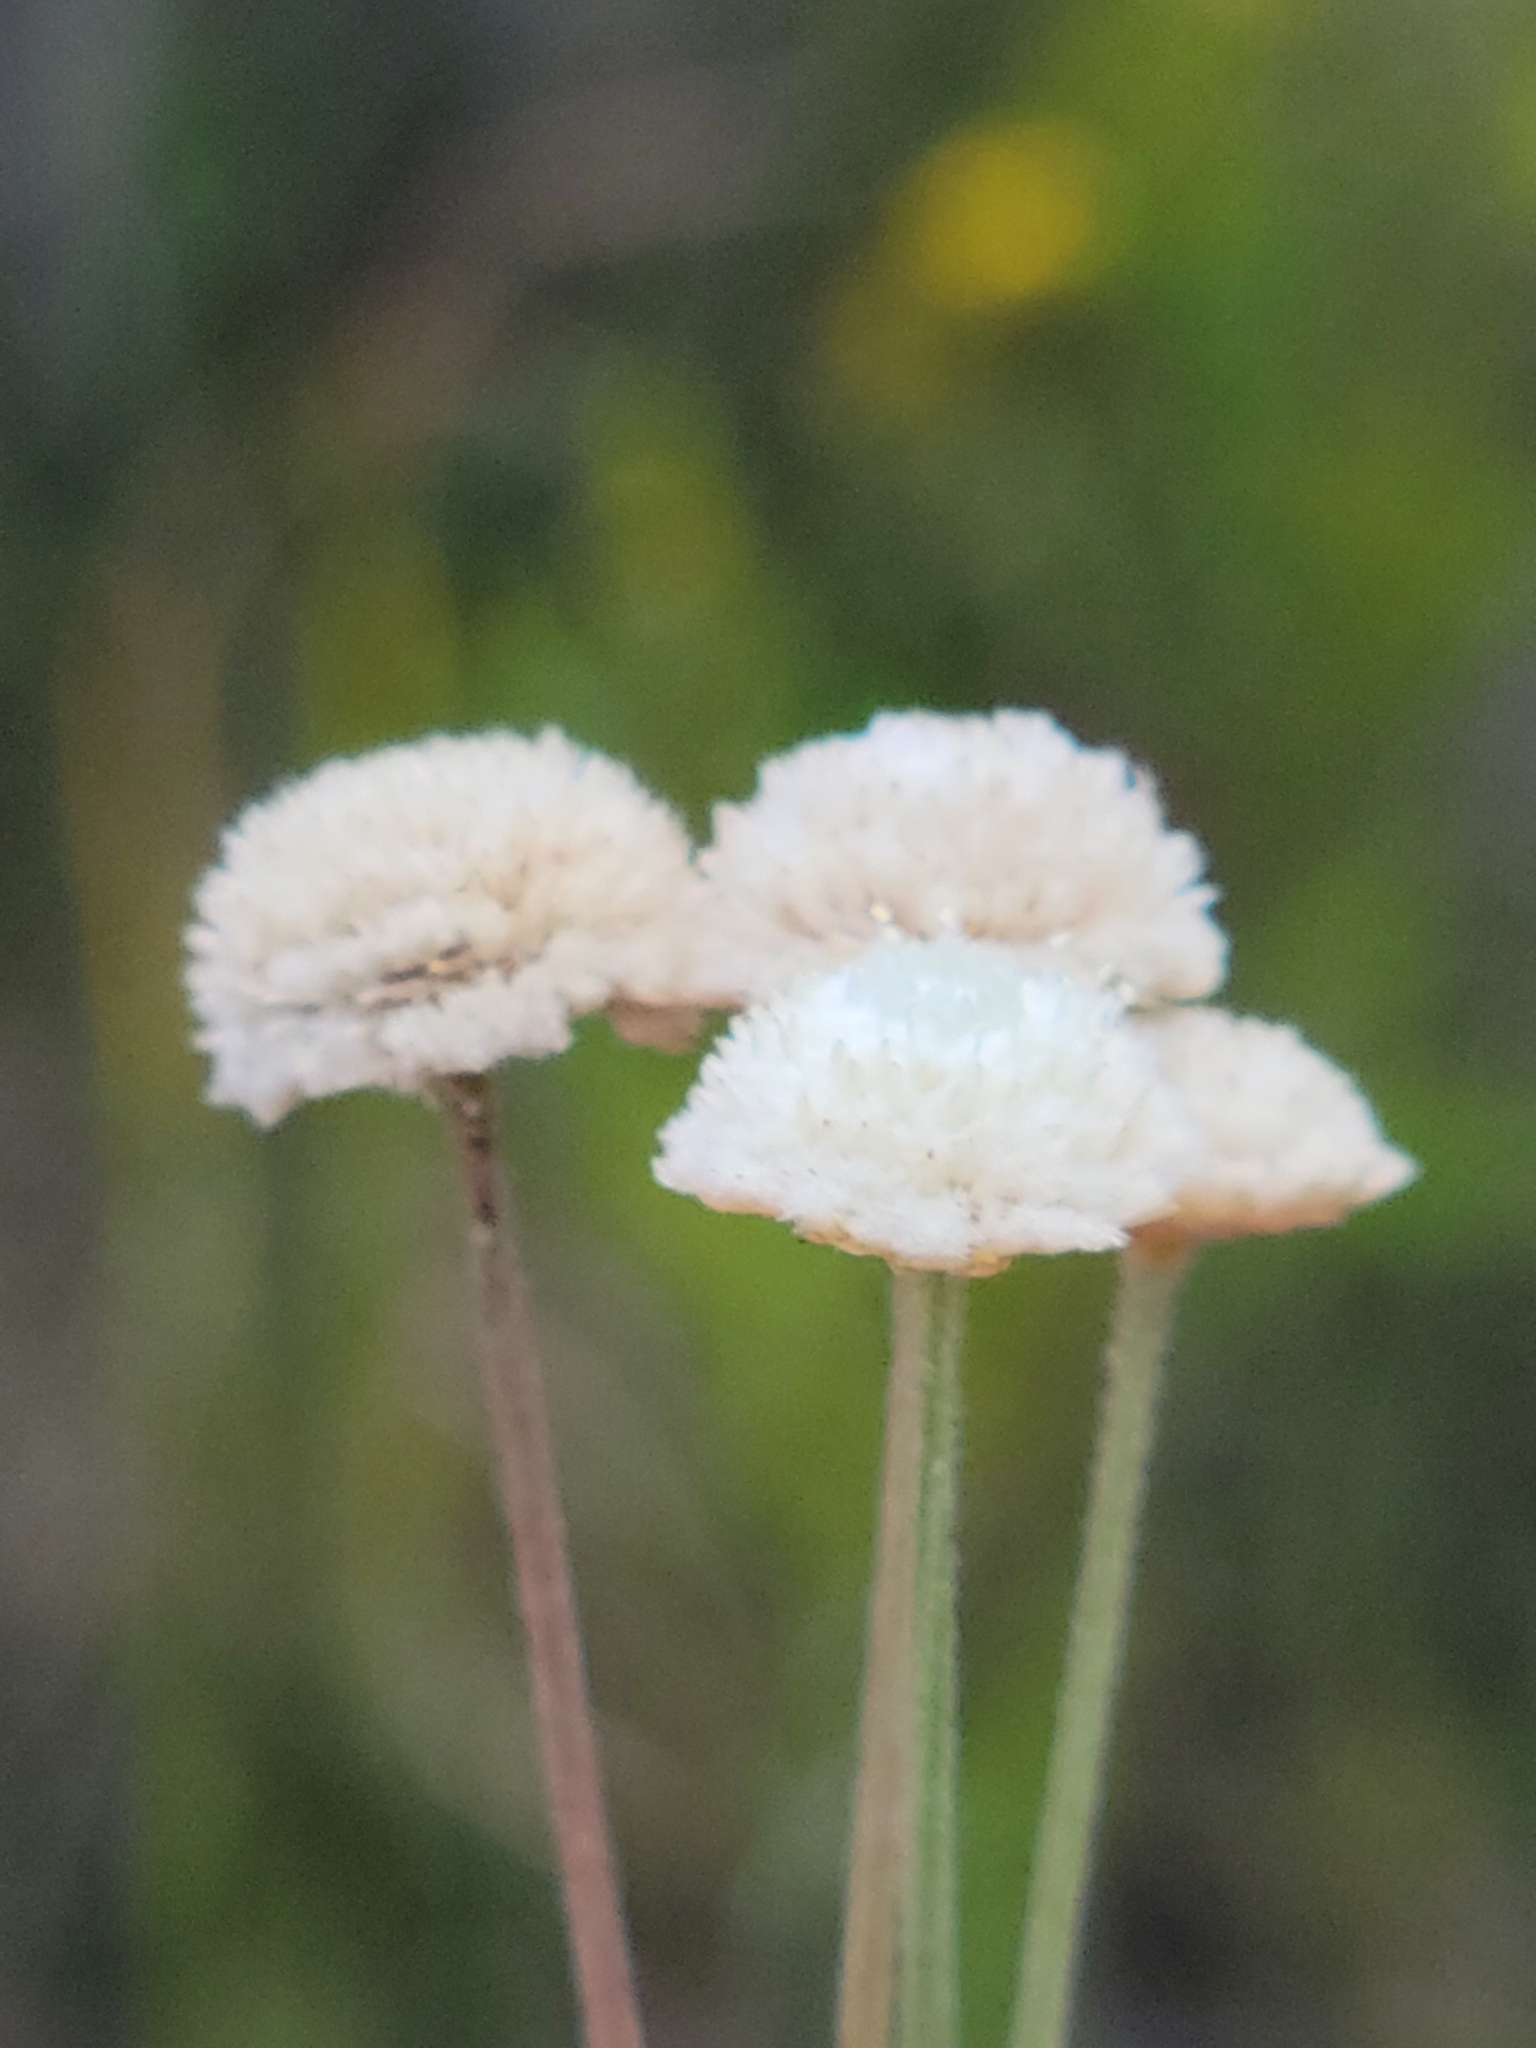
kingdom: Plantae
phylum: Tracheophyta
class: Liliopsida
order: Poales
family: Eriocaulaceae
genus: Syngonanthus
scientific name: Syngonanthus flavidulus
